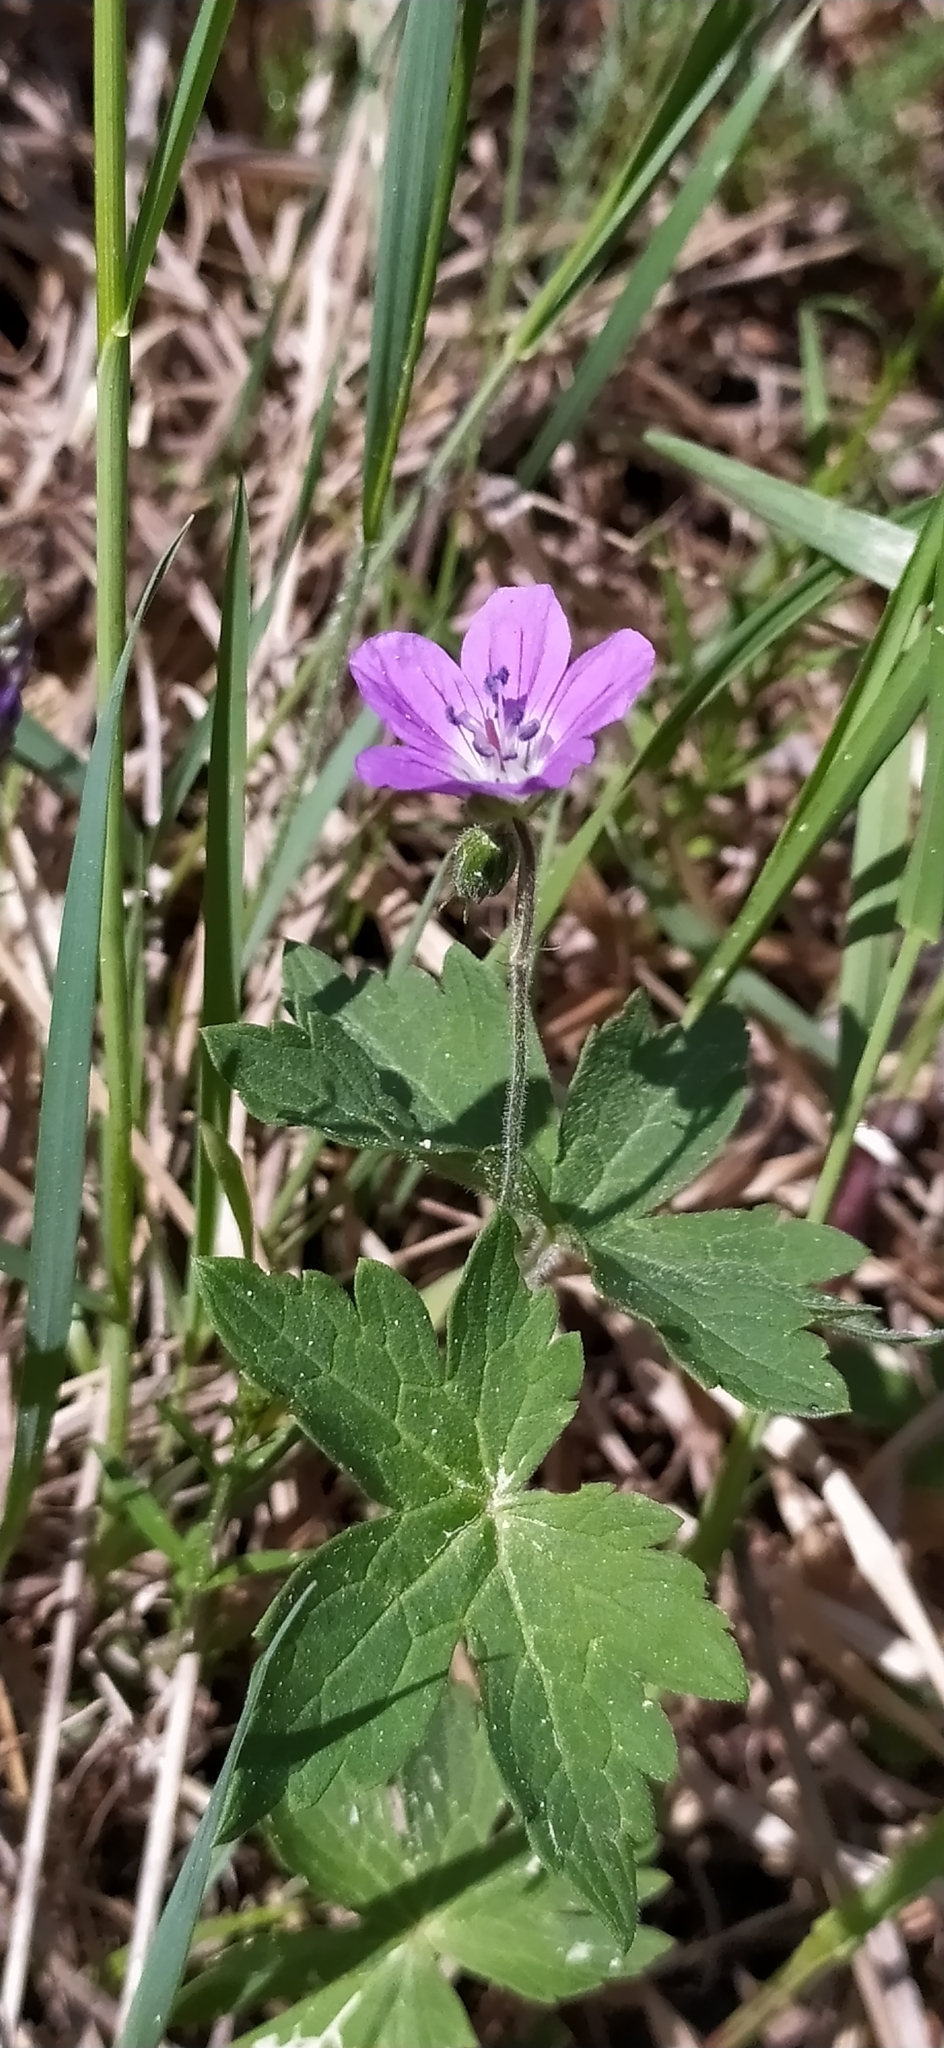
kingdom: Plantae
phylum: Tracheophyta
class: Magnoliopsida
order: Geraniales
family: Geraniaceae
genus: Geranium
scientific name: Geranium sylvaticum
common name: Wood crane's-bill
